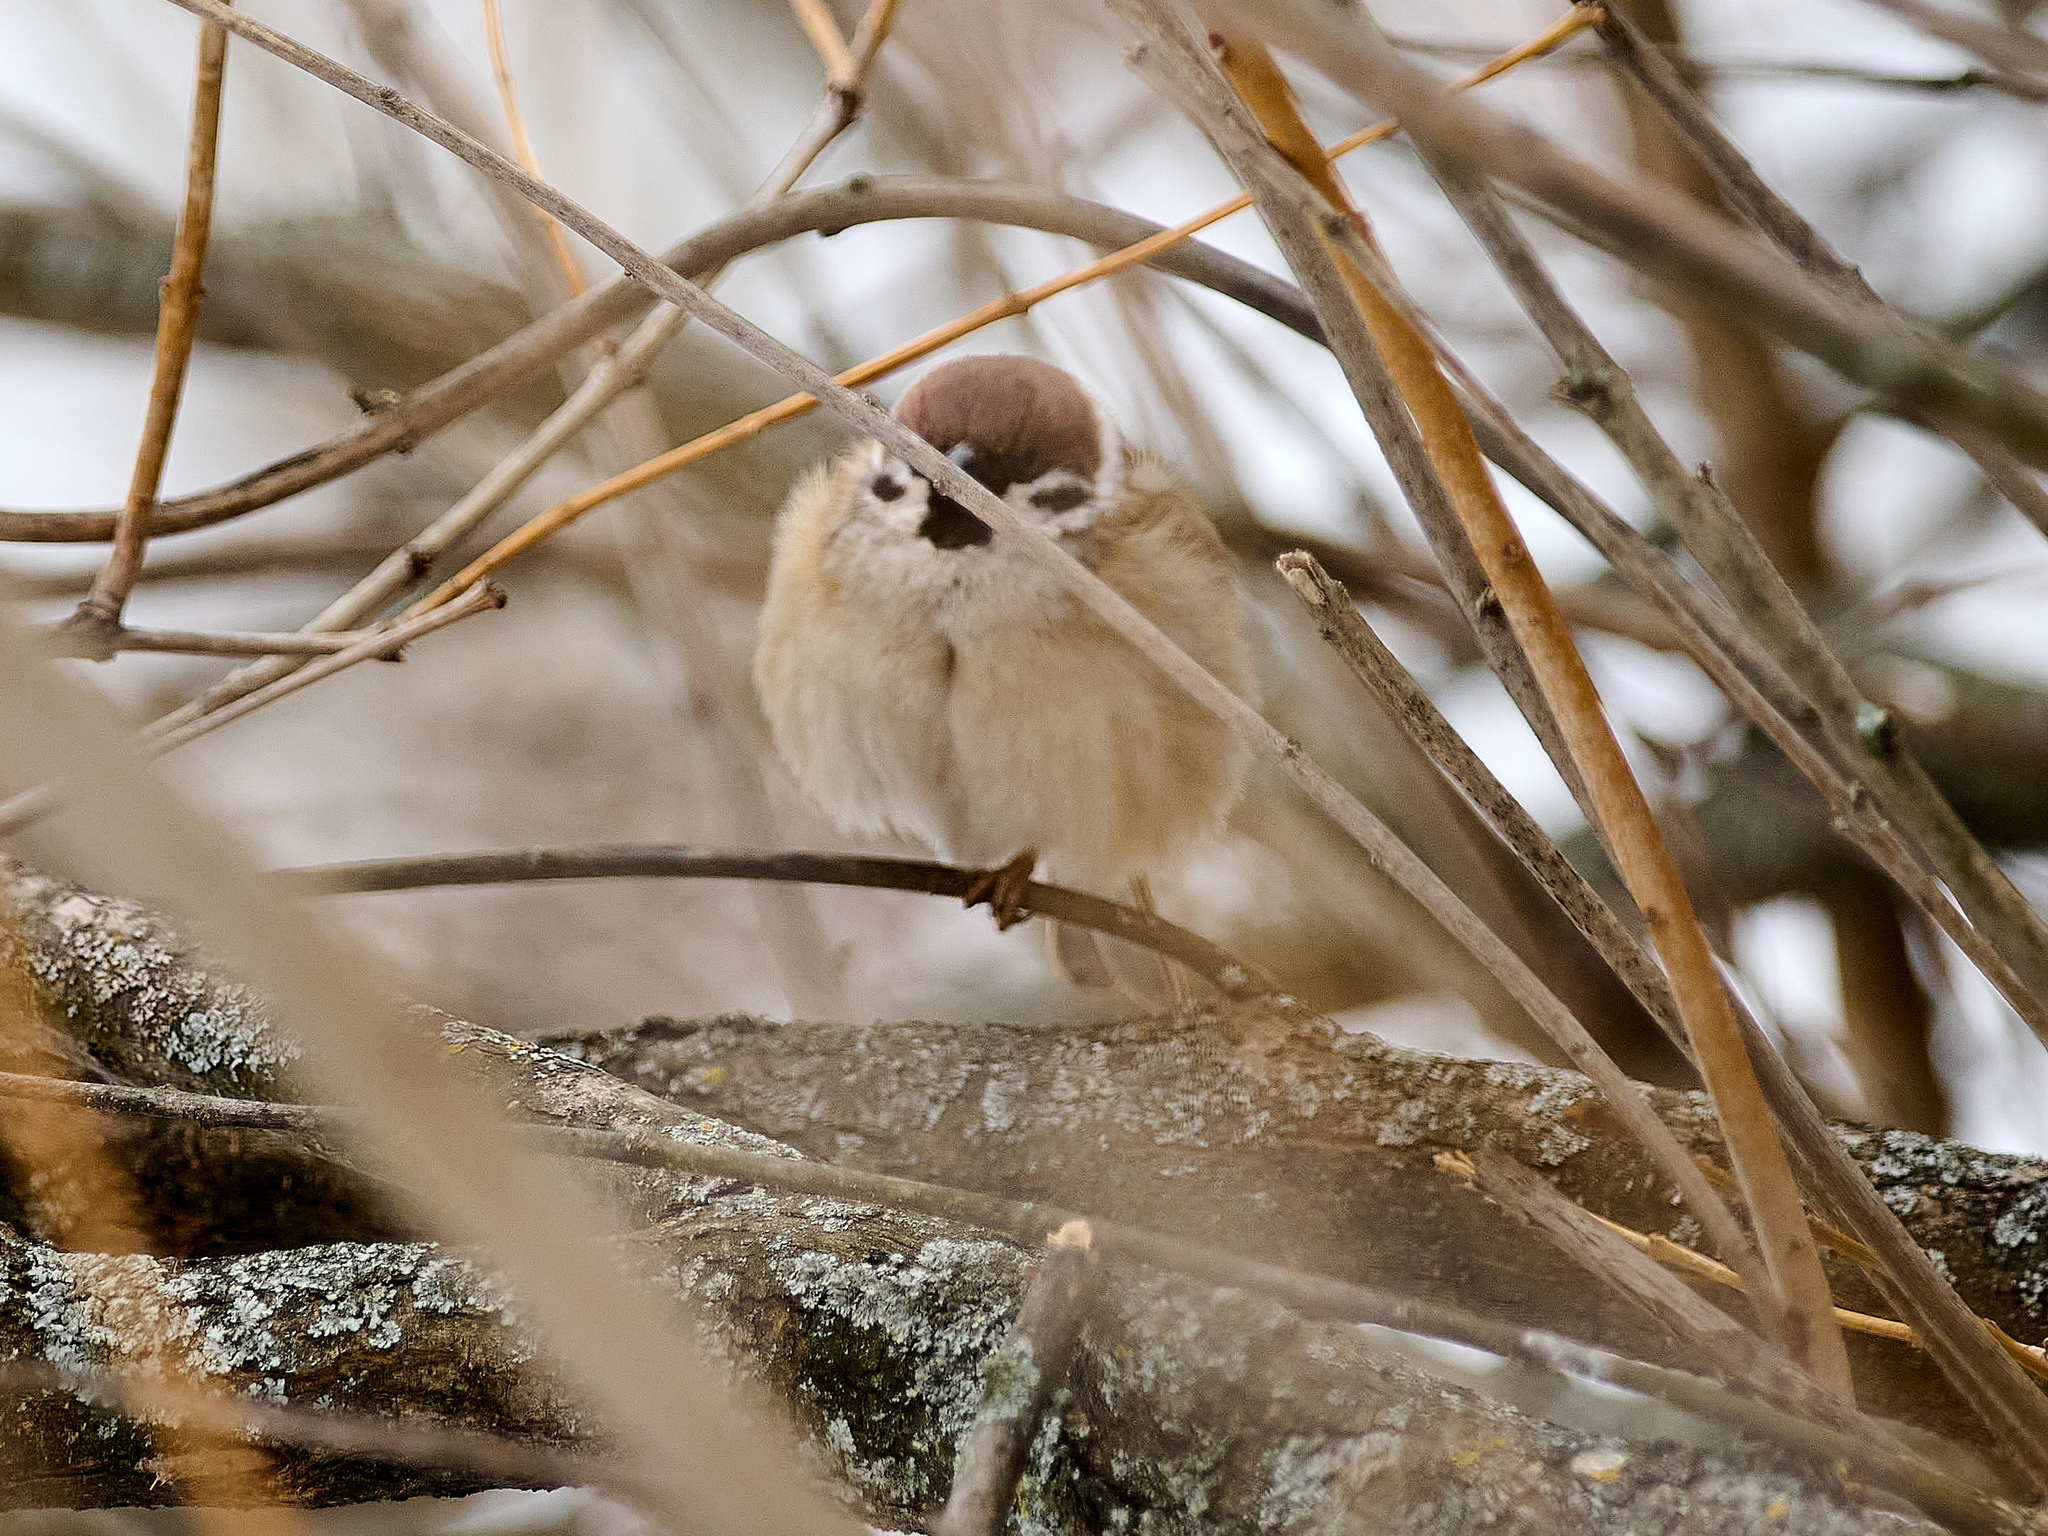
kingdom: Animalia
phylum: Chordata
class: Aves
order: Passeriformes
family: Passeridae
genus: Passer
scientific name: Passer montanus
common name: Eurasian tree sparrow
